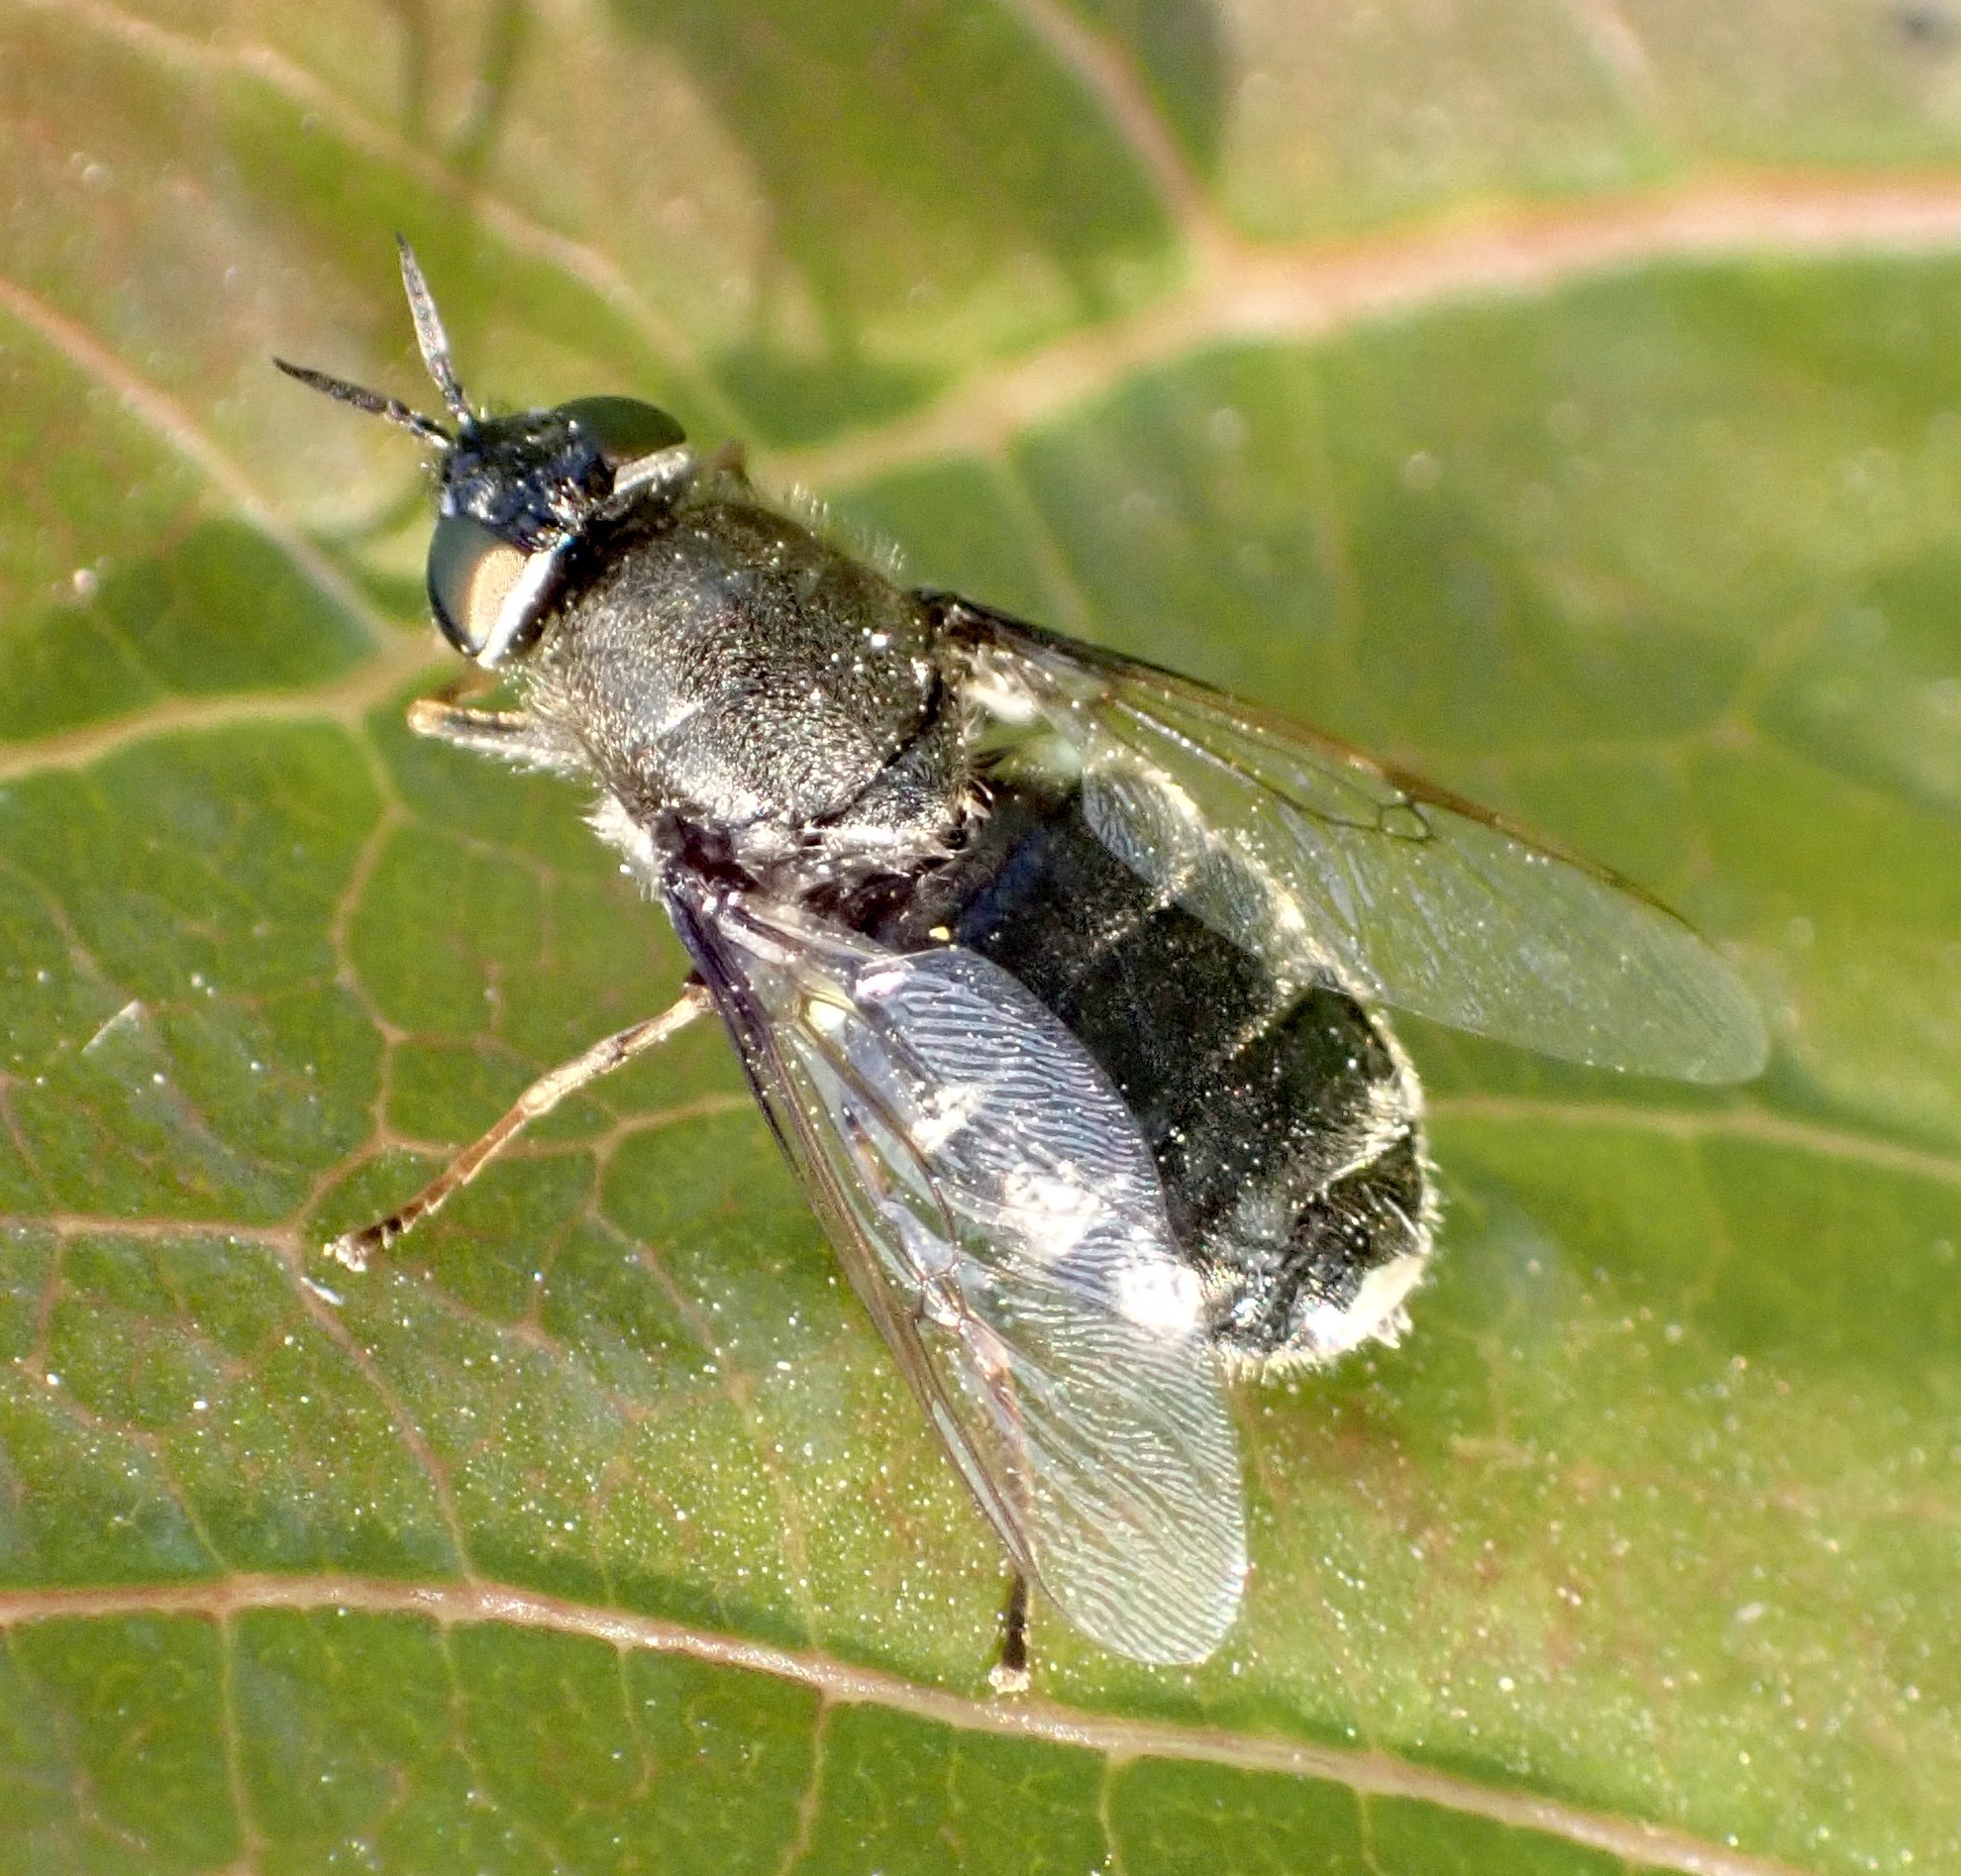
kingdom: Animalia
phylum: Arthropoda
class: Insecta
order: Diptera
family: Stratiomyidae
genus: Odontomyia
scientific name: Odontomyia tigrina
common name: Black colonel
